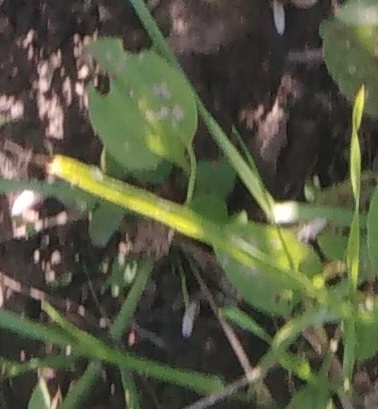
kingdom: Plantae
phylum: Tracheophyta
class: Magnoliopsida
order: Lamiales
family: Plantaginaceae
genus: Plantago
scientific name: Plantago major
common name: Common plantain
